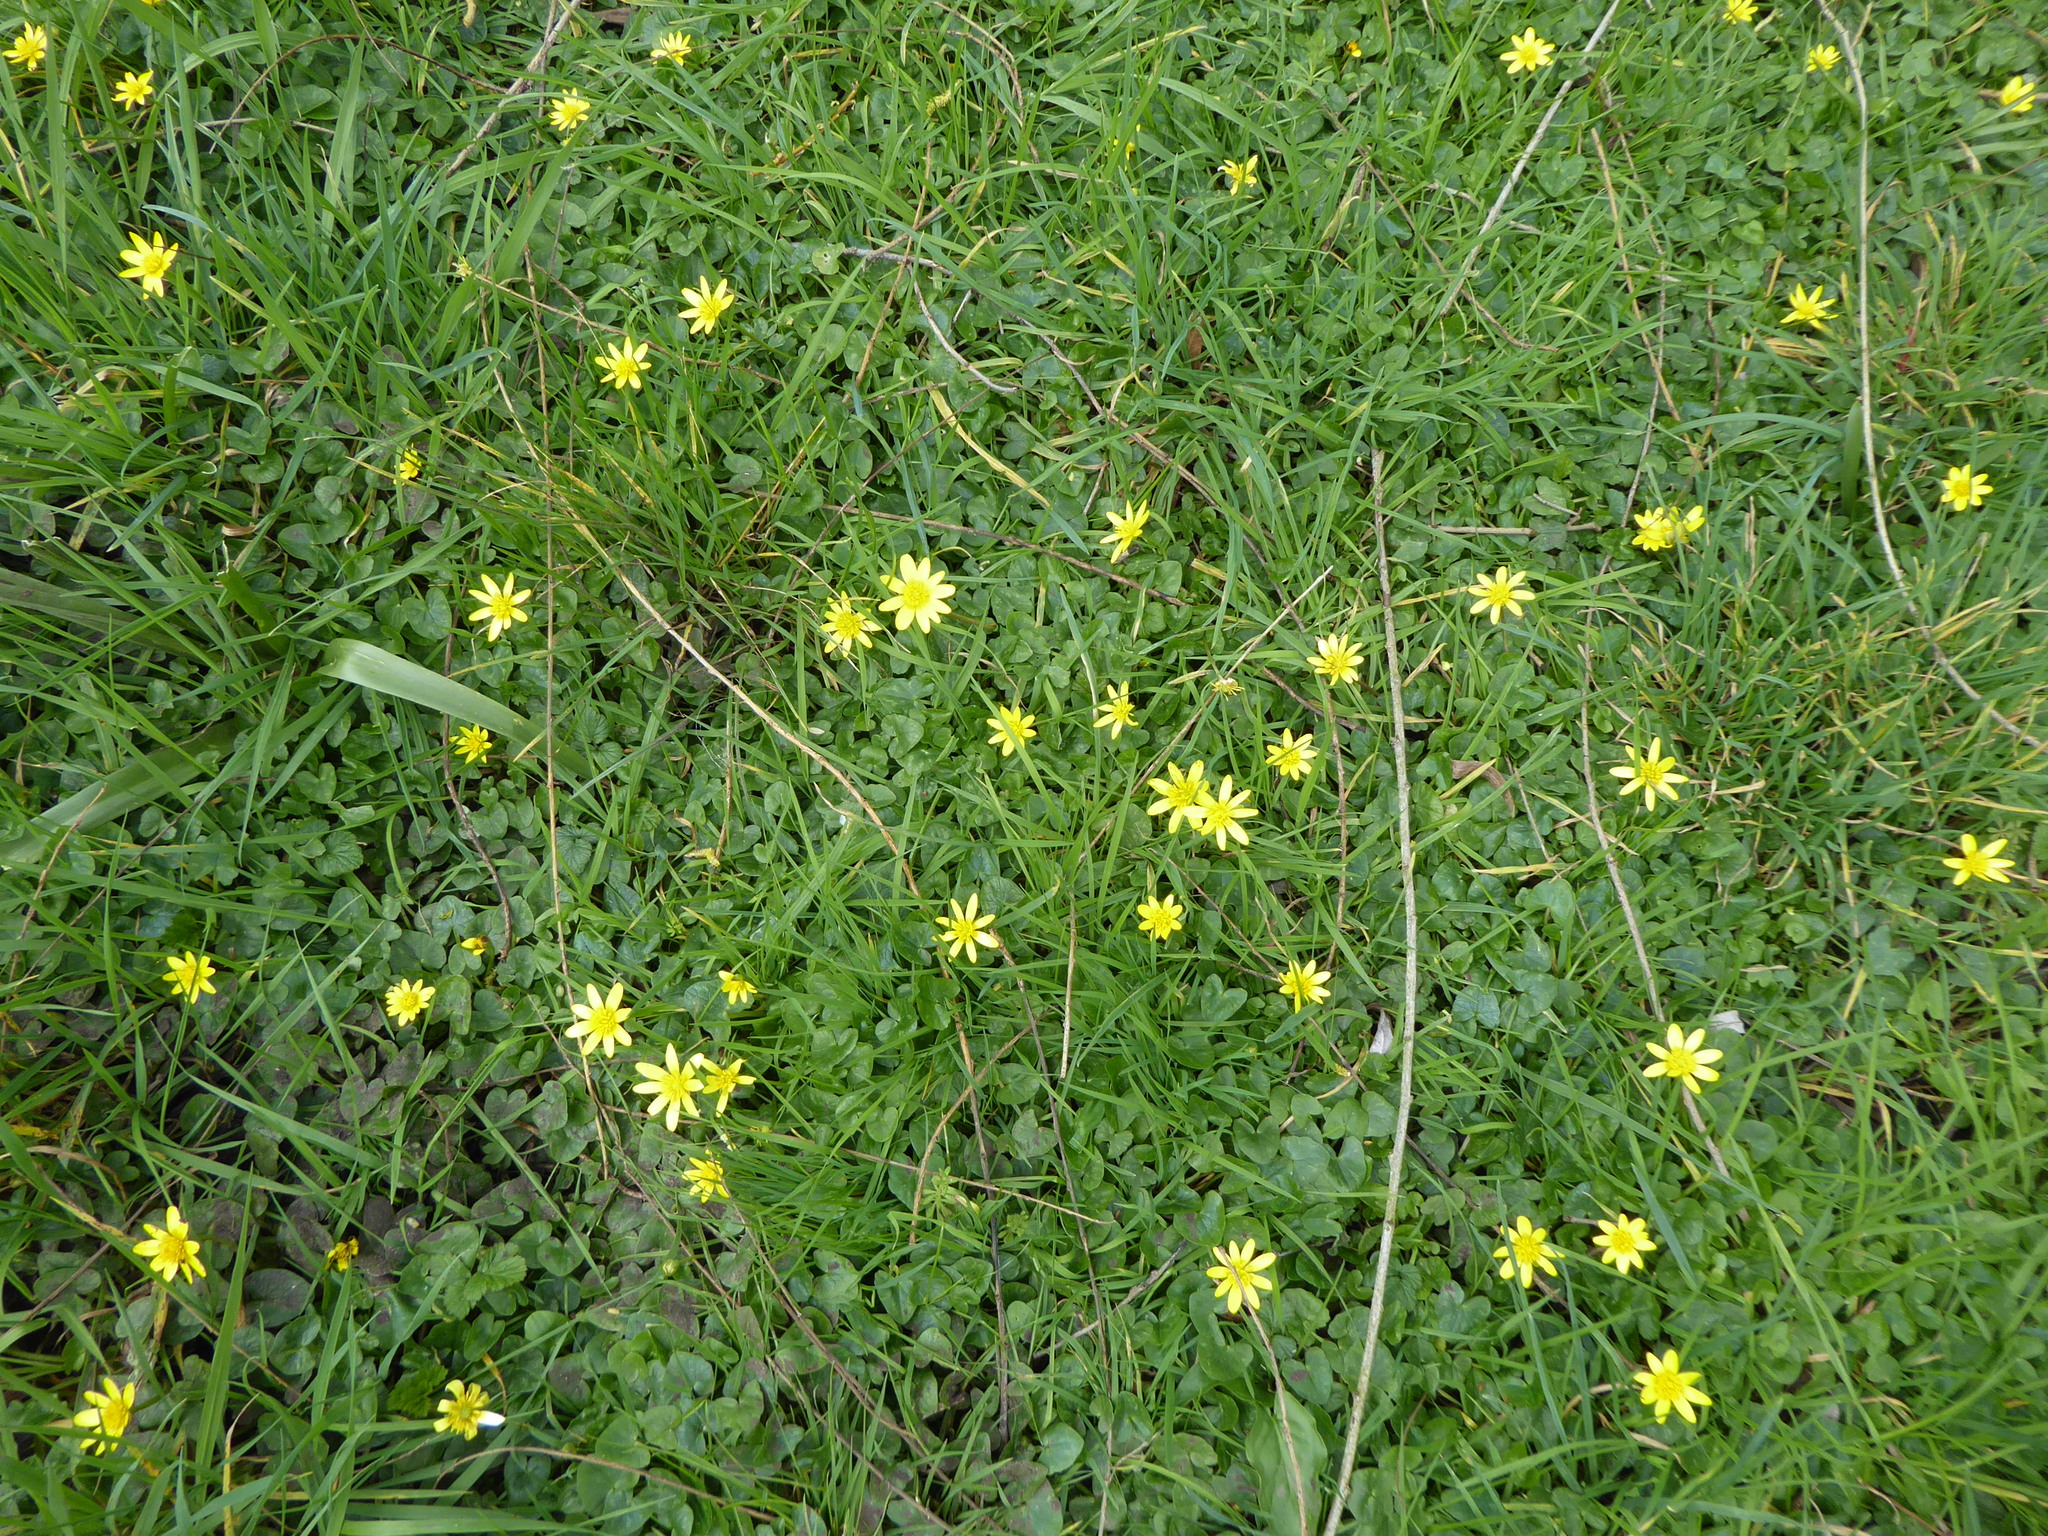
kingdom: Plantae
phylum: Tracheophyta
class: Magnoliopsida
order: Ranunculales
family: Ranunculaceae
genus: Ficaria
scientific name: Ficaria verna
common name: Lesser celandine
